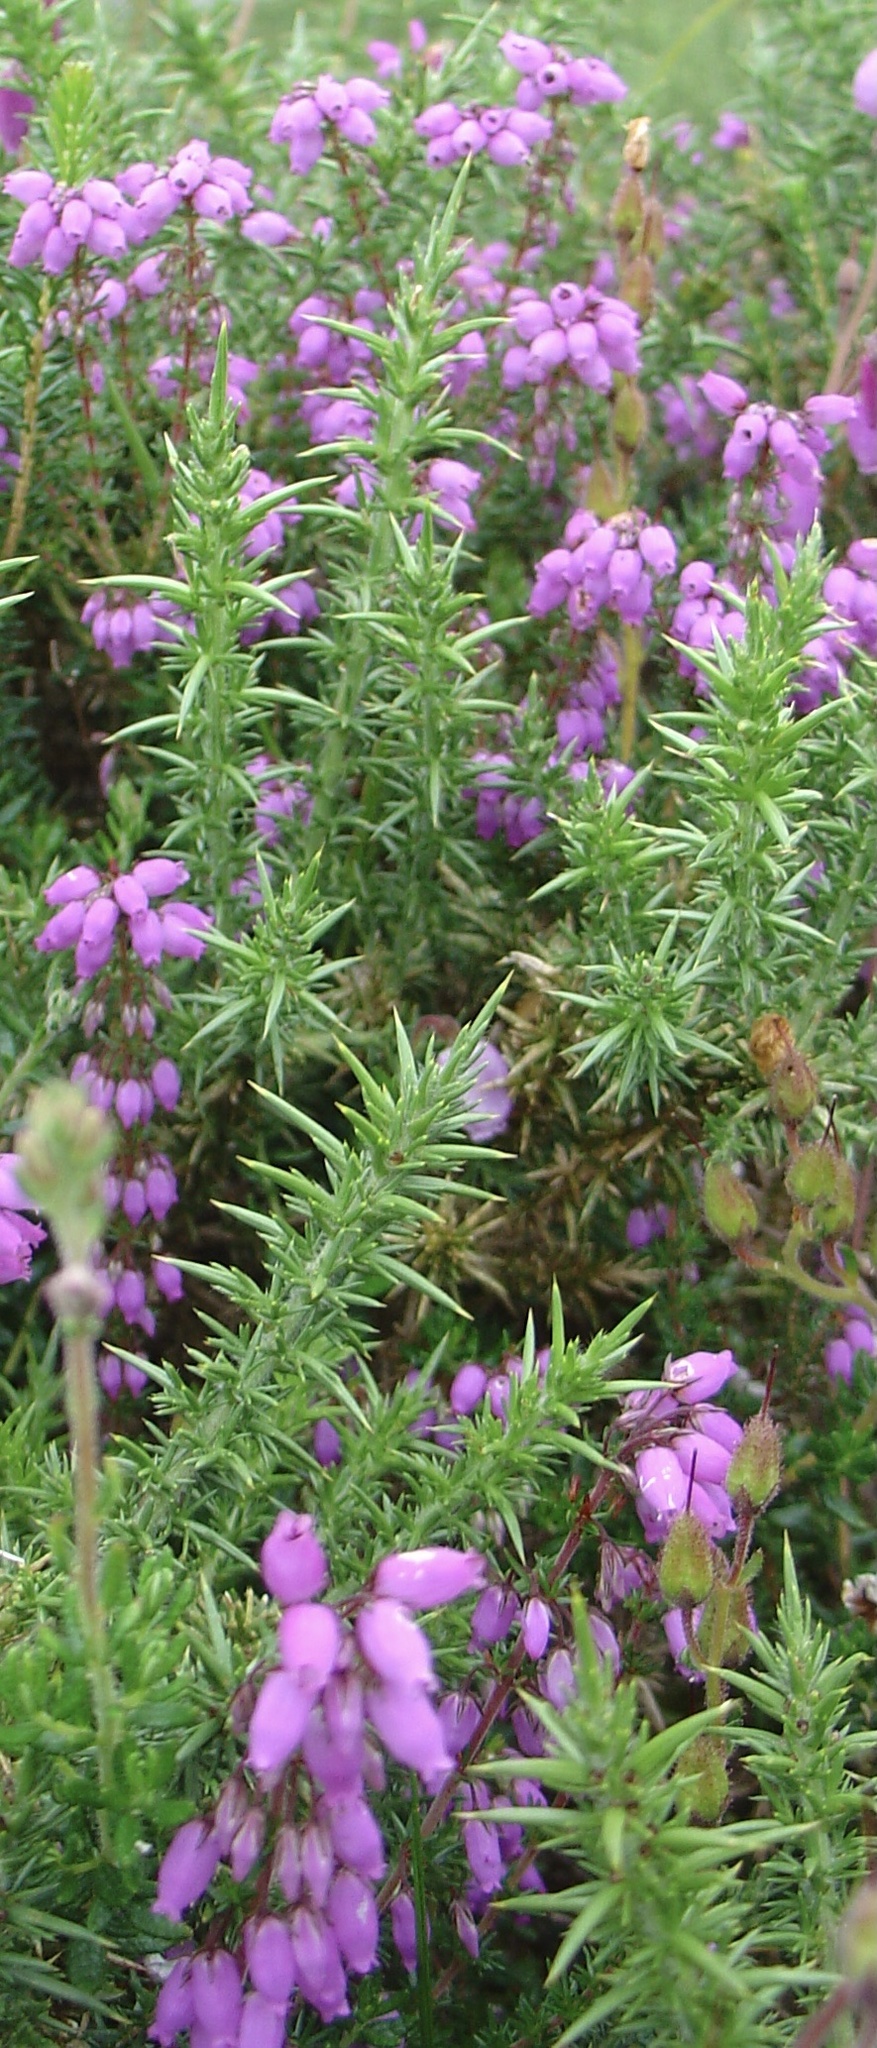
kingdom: Plantae
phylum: Tracheophyta
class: Magnoliopsida
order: Ericales
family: Ericaceae
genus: Erica
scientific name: Erica cinerea
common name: Bell heather
